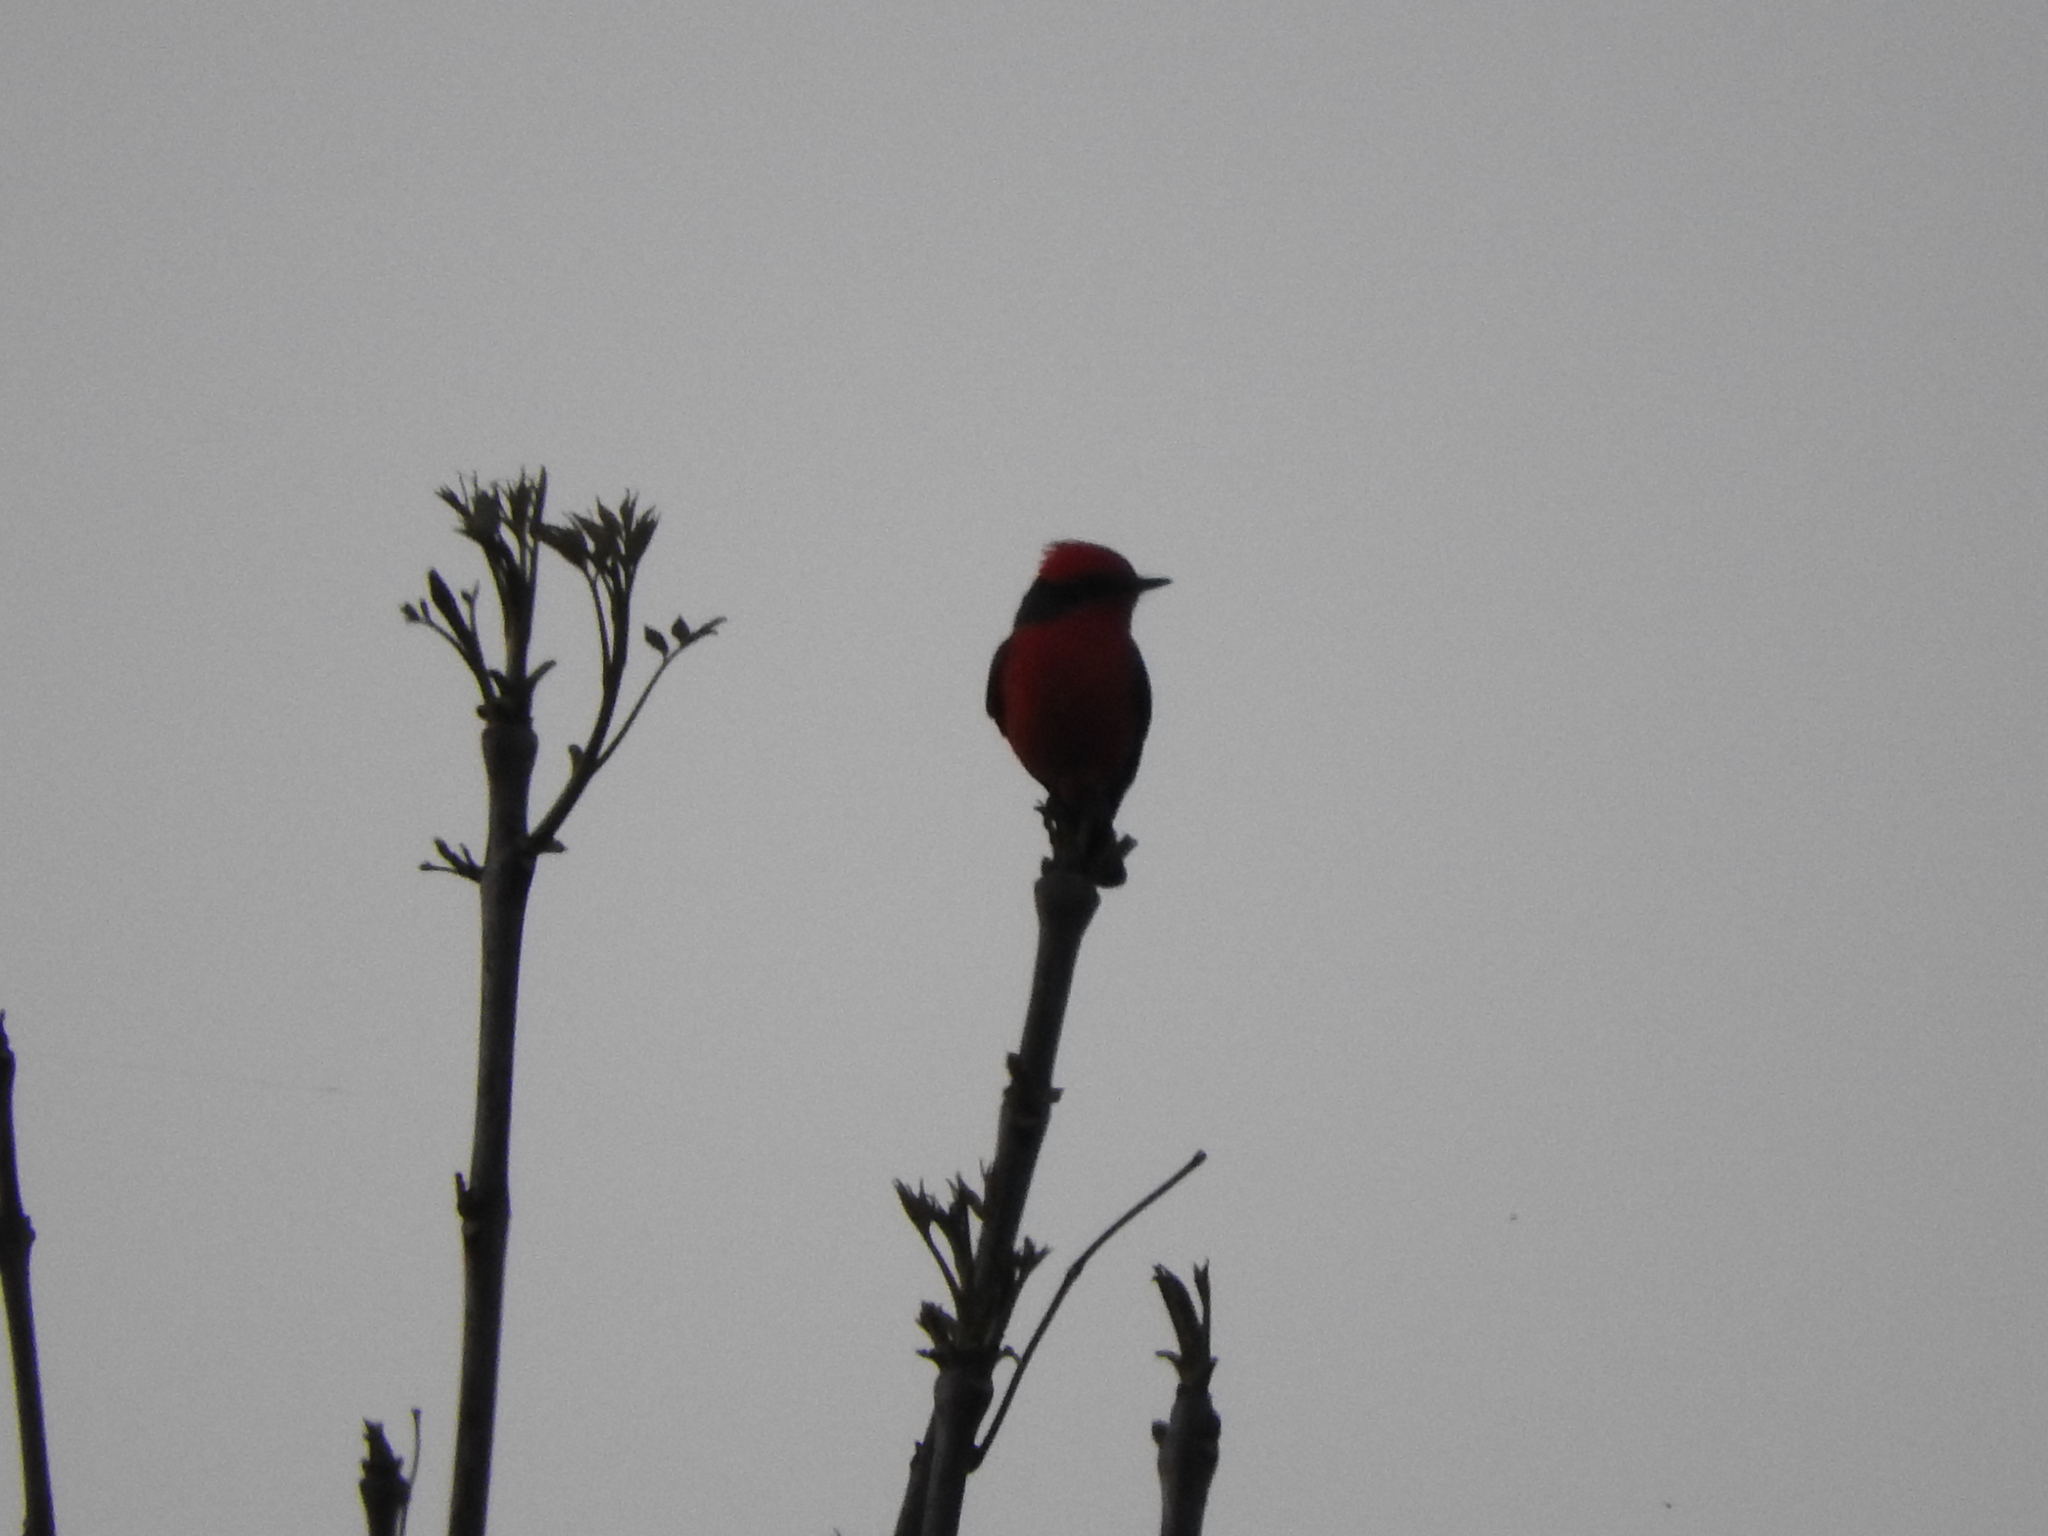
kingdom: Animalia
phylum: Chordata
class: Aves
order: Passeriformes
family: Tyrannidae
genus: Pyrocephalus
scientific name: Pyrocephalus rubinus
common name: Vermilion flycatcher
